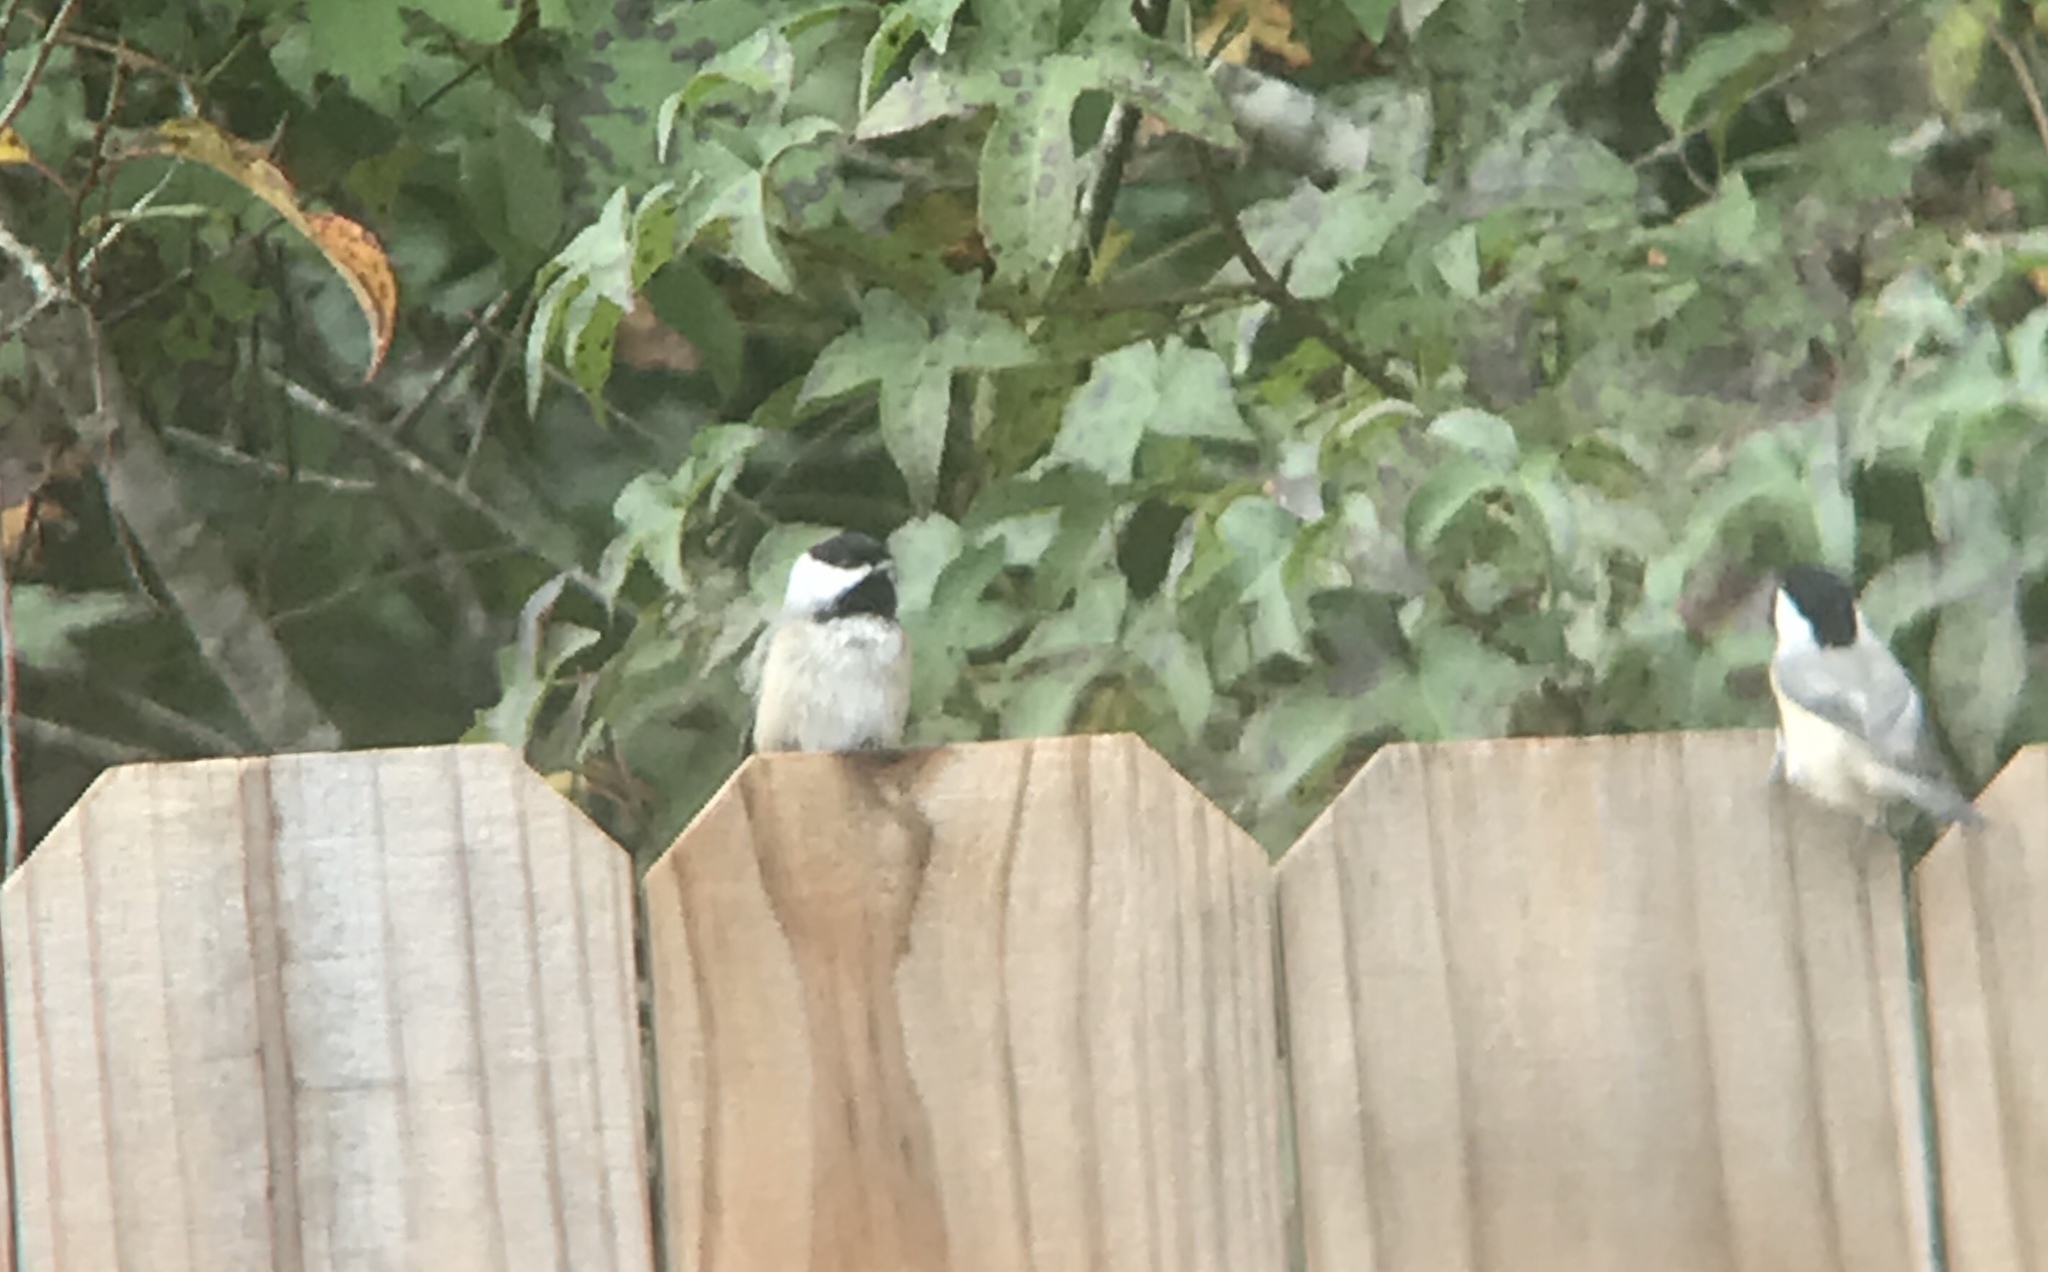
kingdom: Animalia
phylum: Chordata
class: Aves
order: Passeriformes
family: Paridae
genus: Poecile
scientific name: Poecile carolinensis
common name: Carolina chickadee
